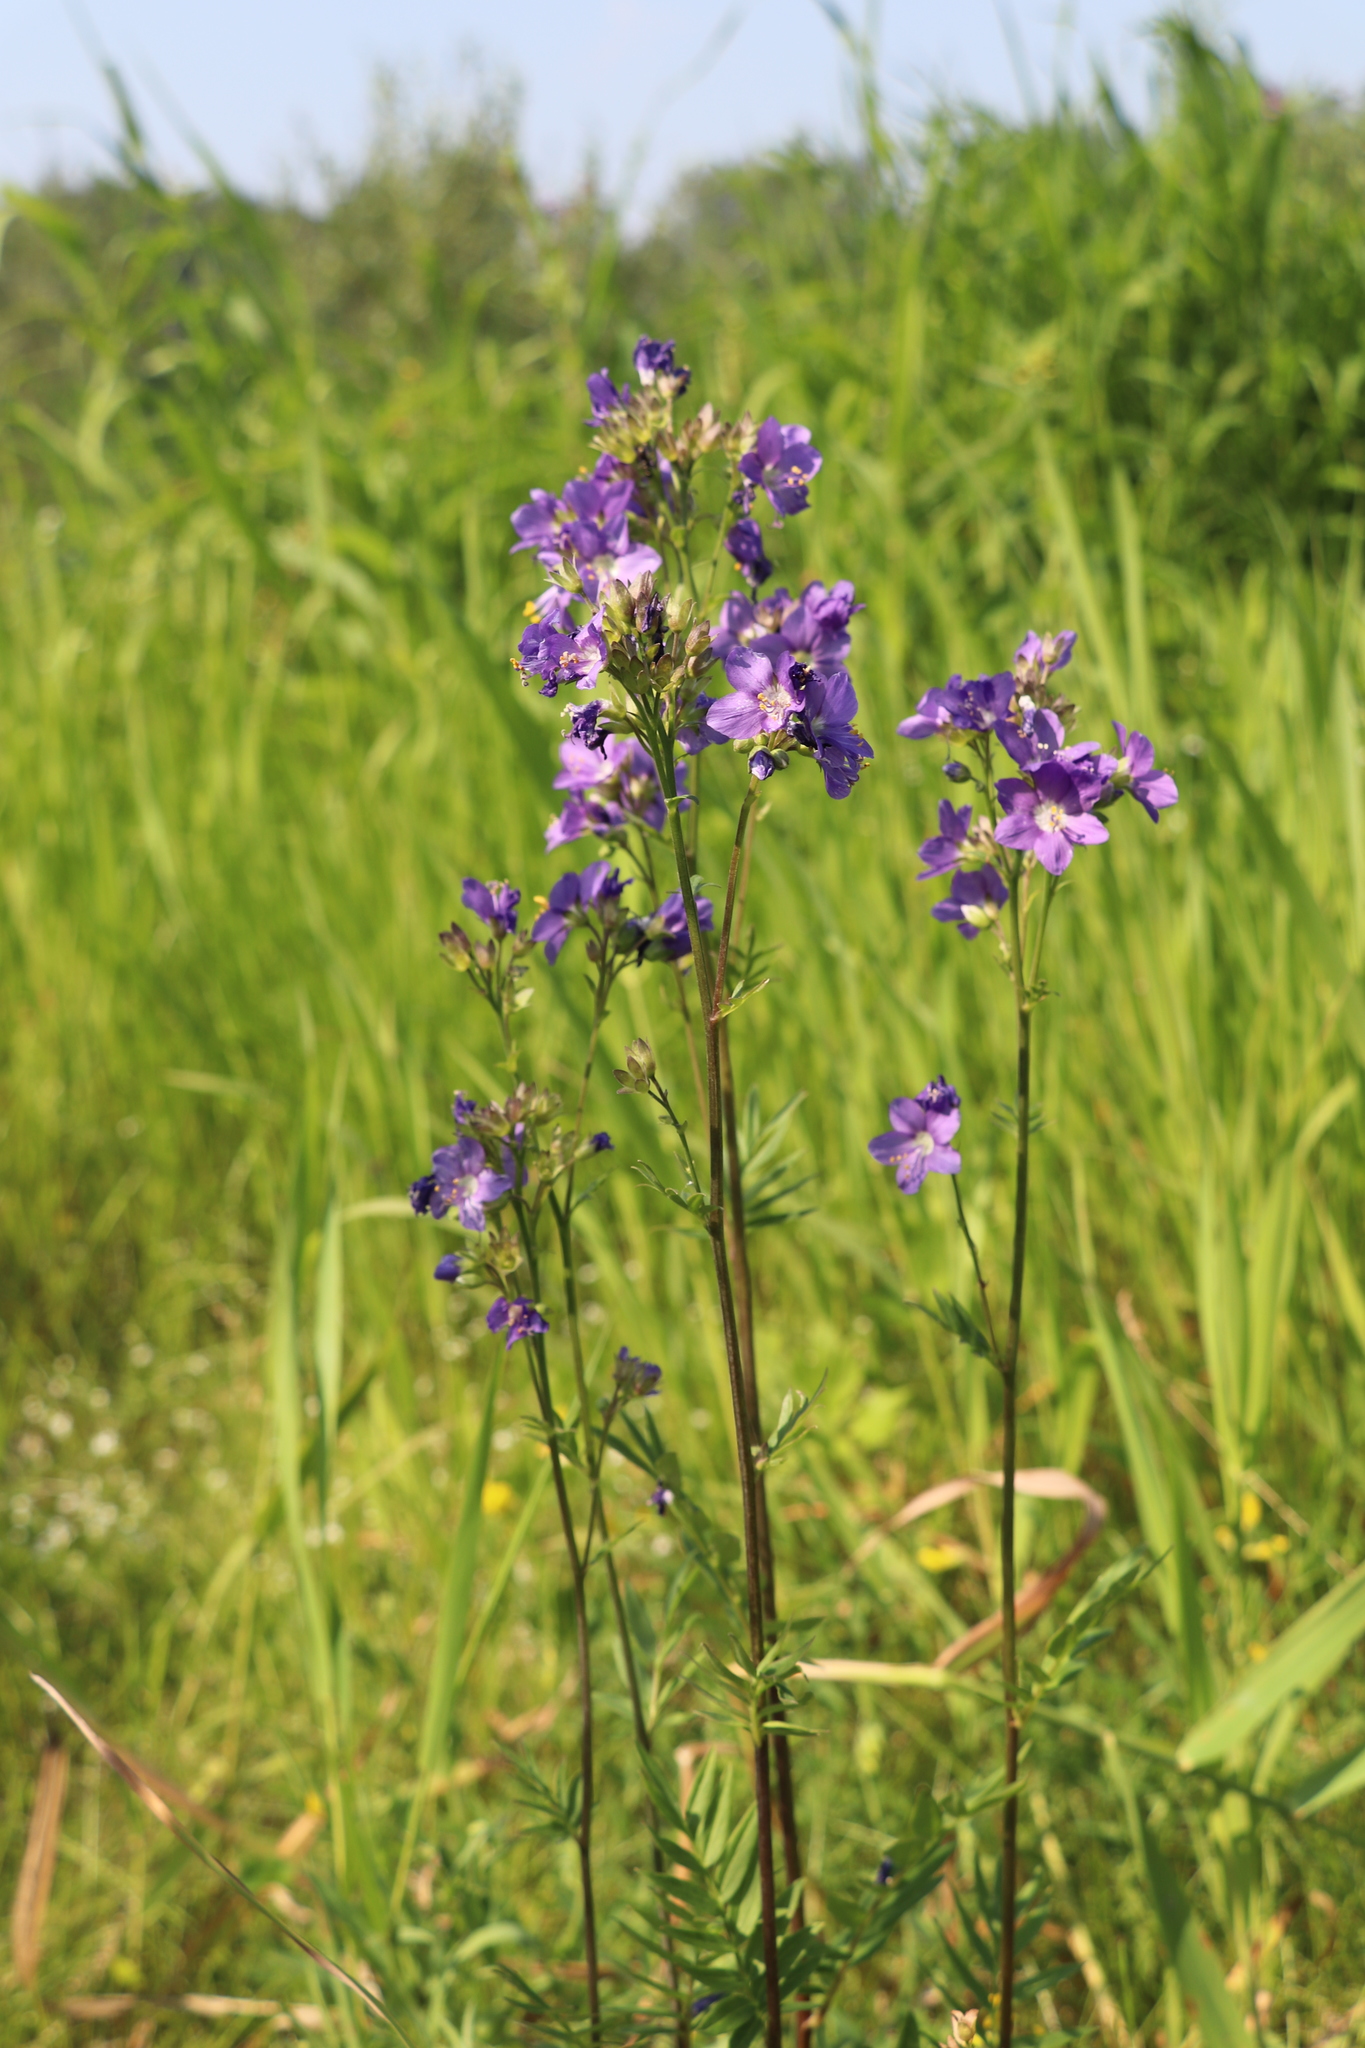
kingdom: Plantae
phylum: Tracheophyta
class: Magnoliopsida
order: Ericales
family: Polemoniaceae
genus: Polemonium
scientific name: Polemonium caeruleum
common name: Jacob's-ladder
